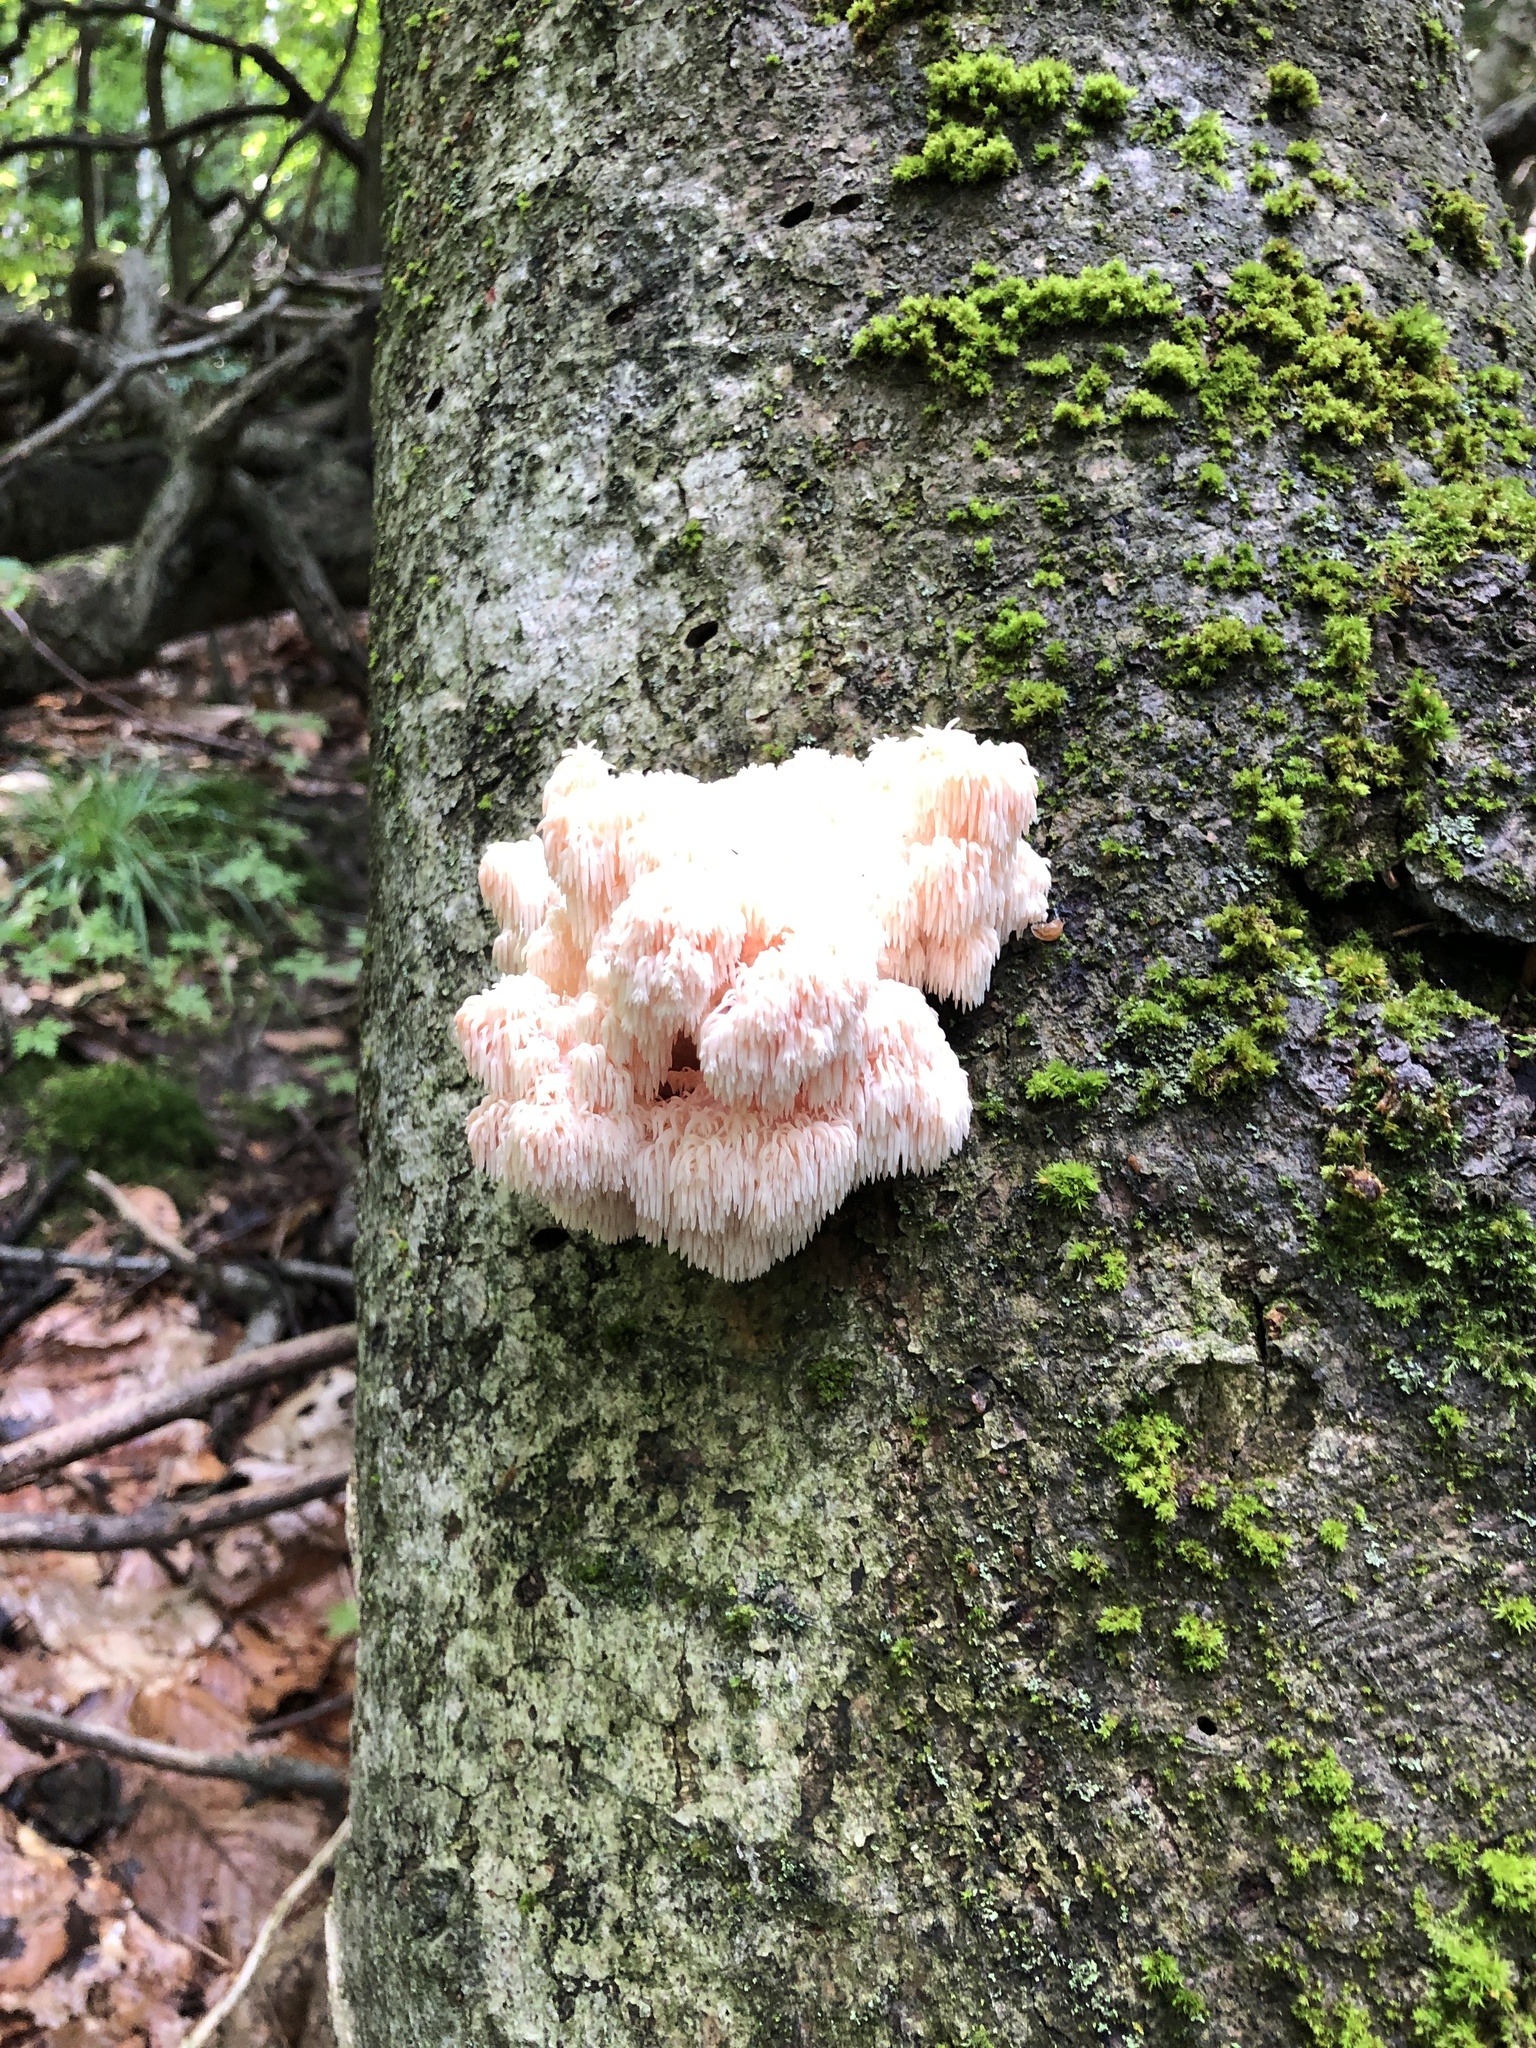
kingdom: Fungi
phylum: Basidiomycota
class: Agaricomycetes
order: Russulales
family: Hericiaceae
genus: Hericium
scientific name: Hericium americanum
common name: Bear's head tooth
